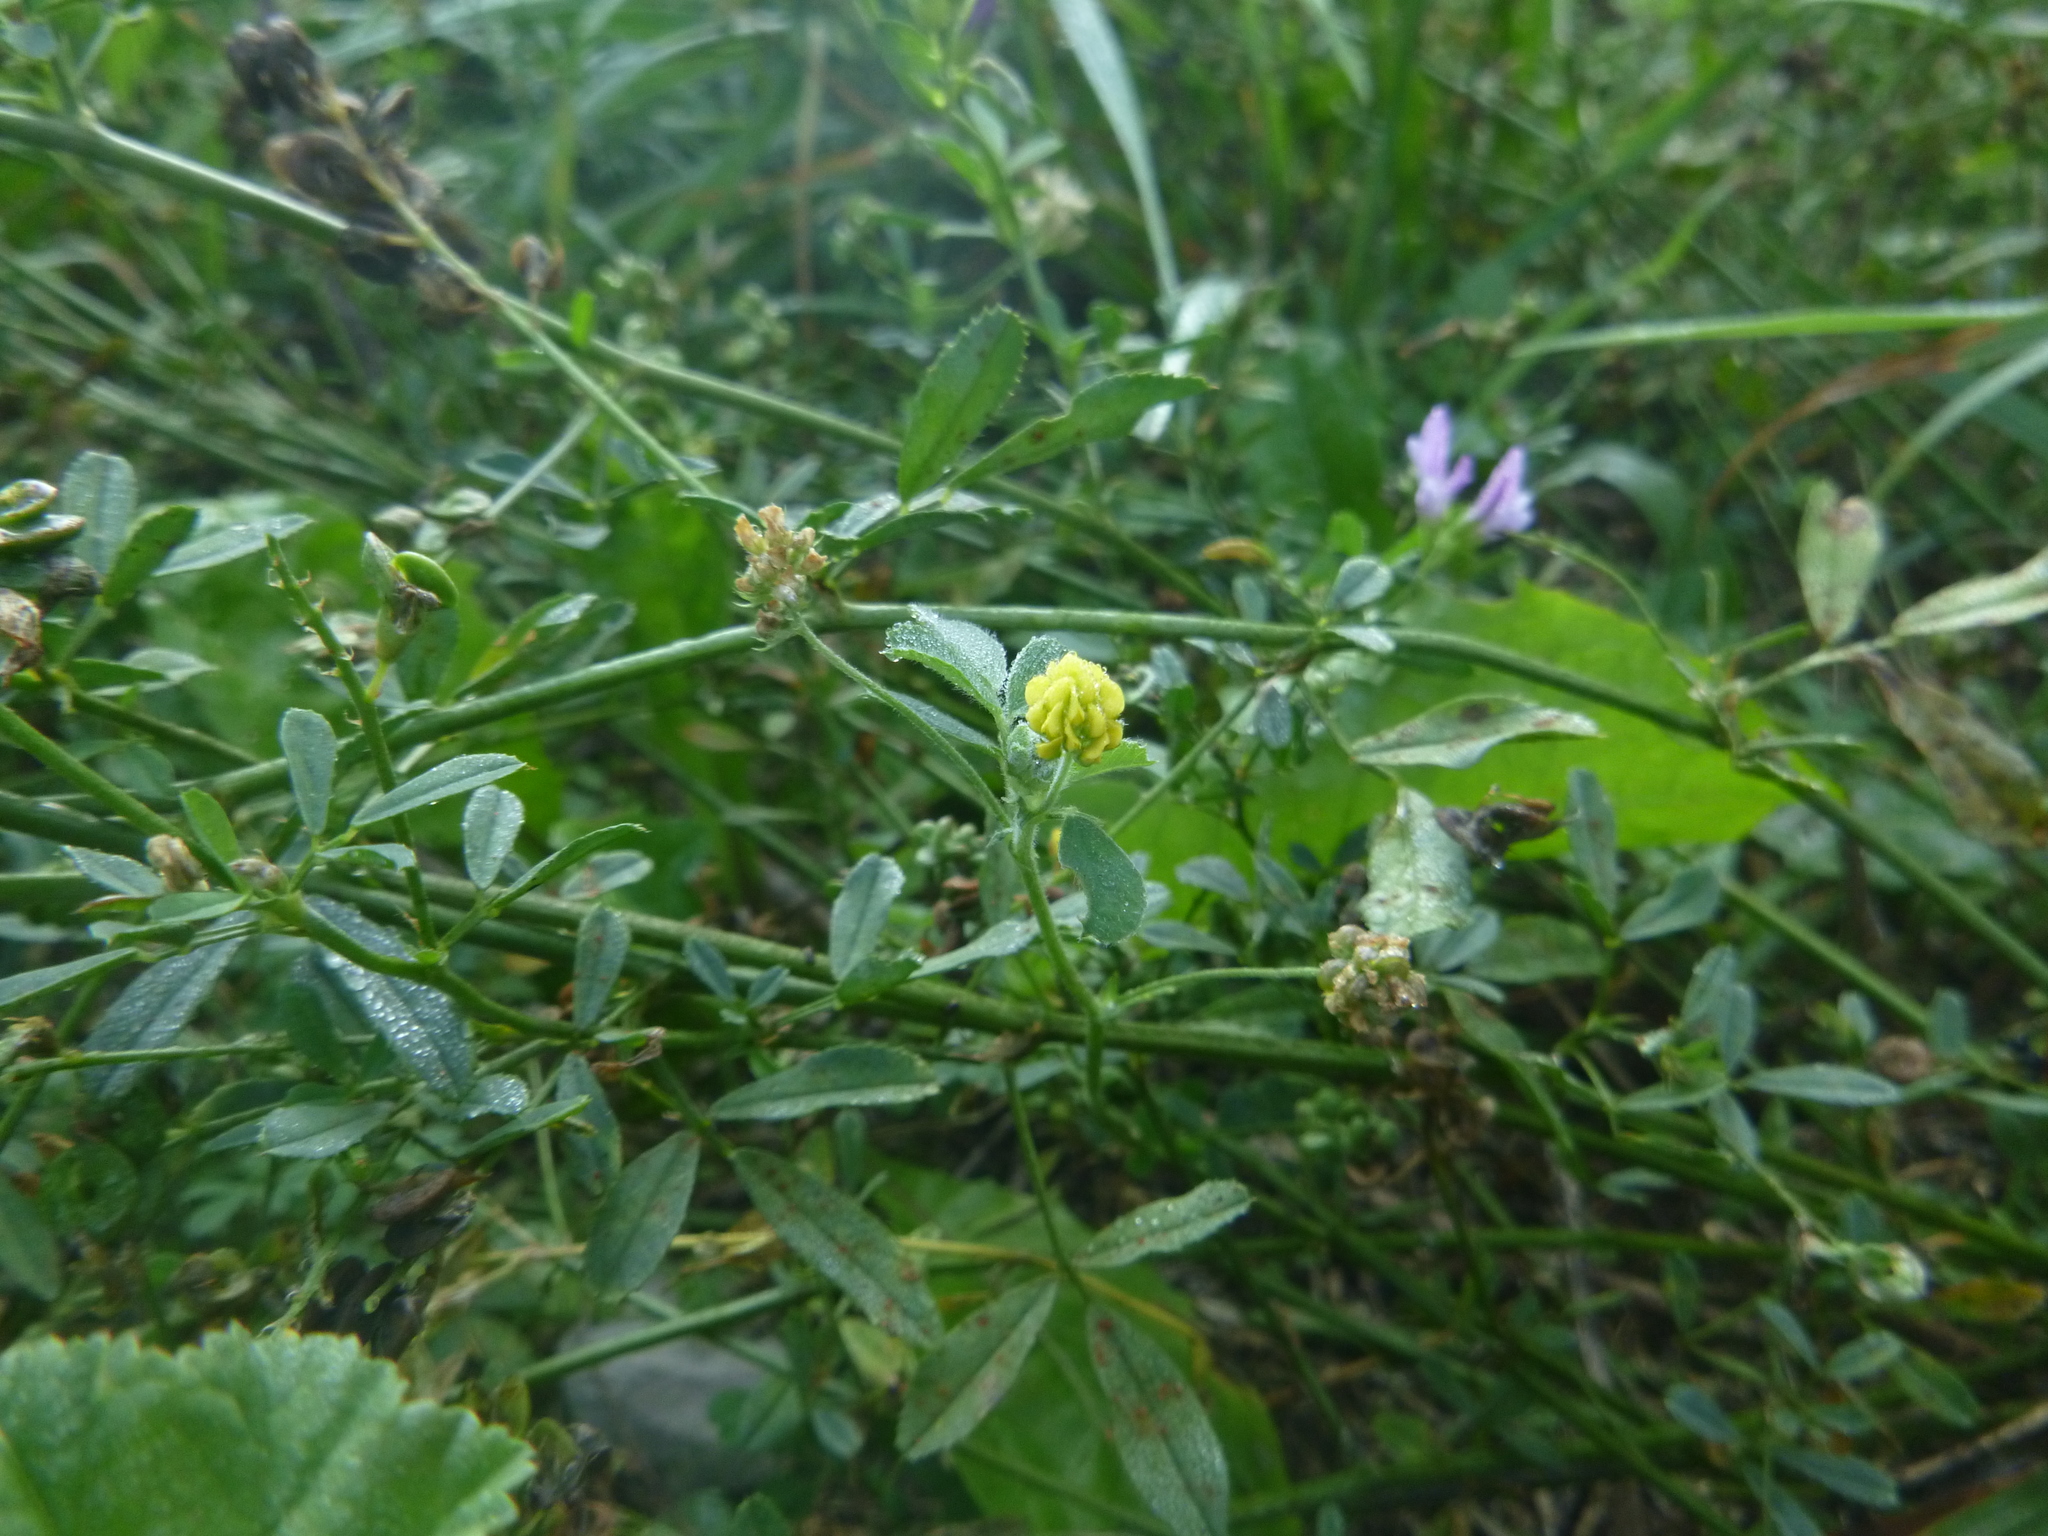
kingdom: Plantae
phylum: Tracheophyta
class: Magnoliopsida
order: Fabales
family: Fabaceae
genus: Medicago
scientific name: Medicago lupulina
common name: Black medick
